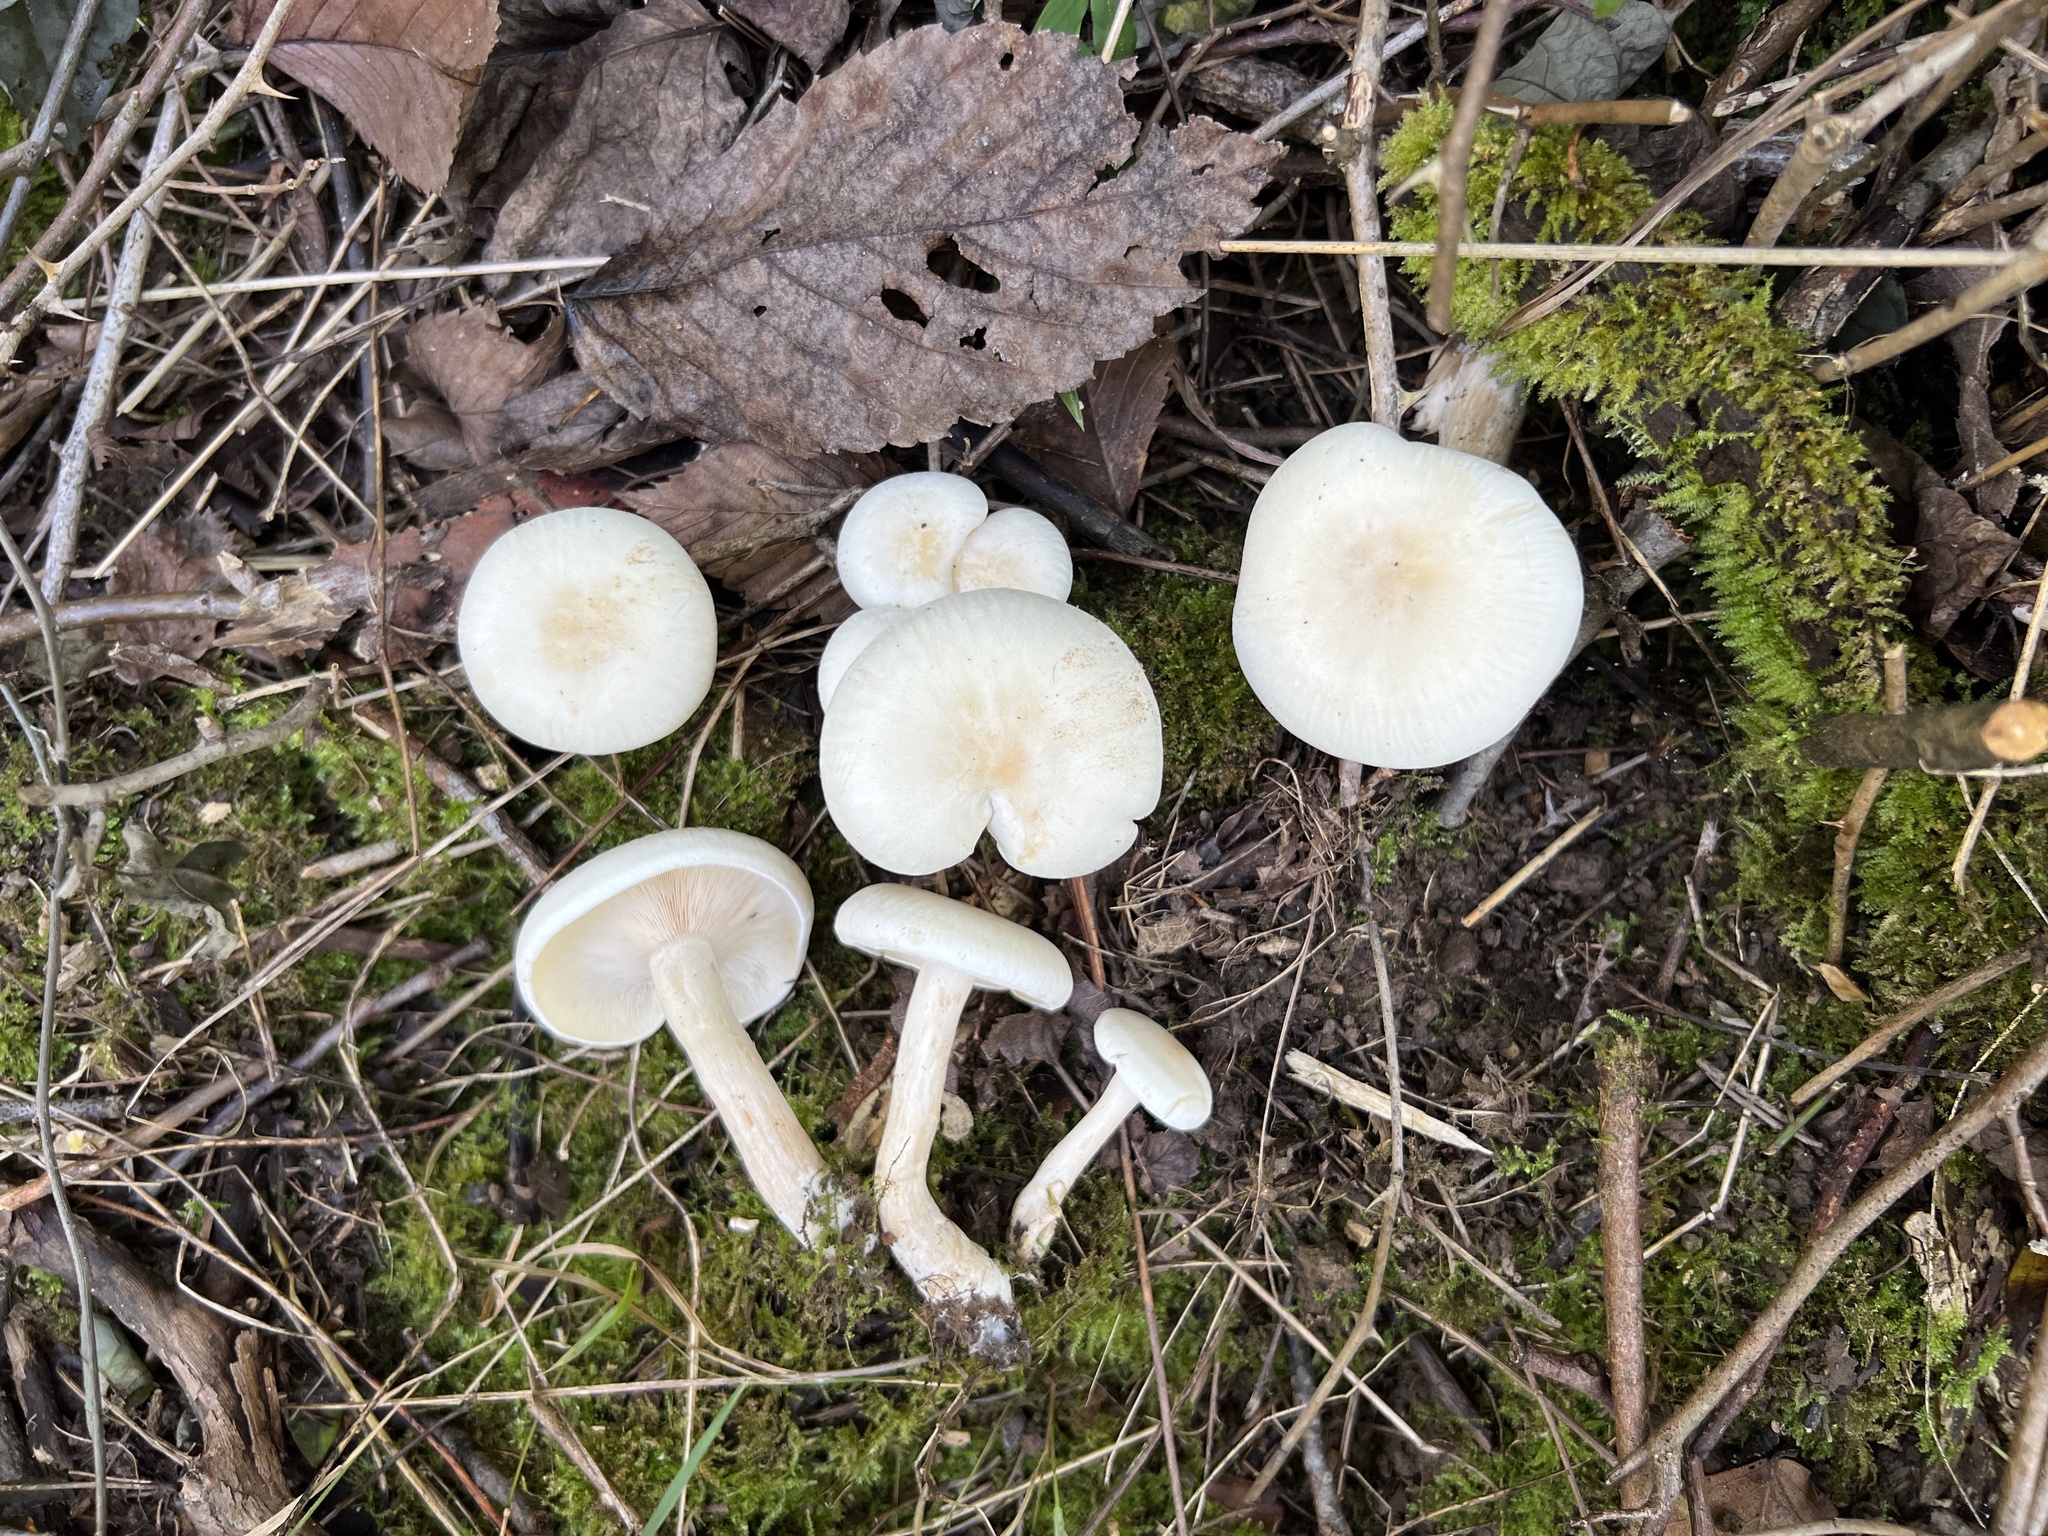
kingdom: Fungi
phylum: Basidiomycota
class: Agaricomycetes
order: Agaricales
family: Tricholomataceae
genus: Lepista
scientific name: Lepista subconnexa
